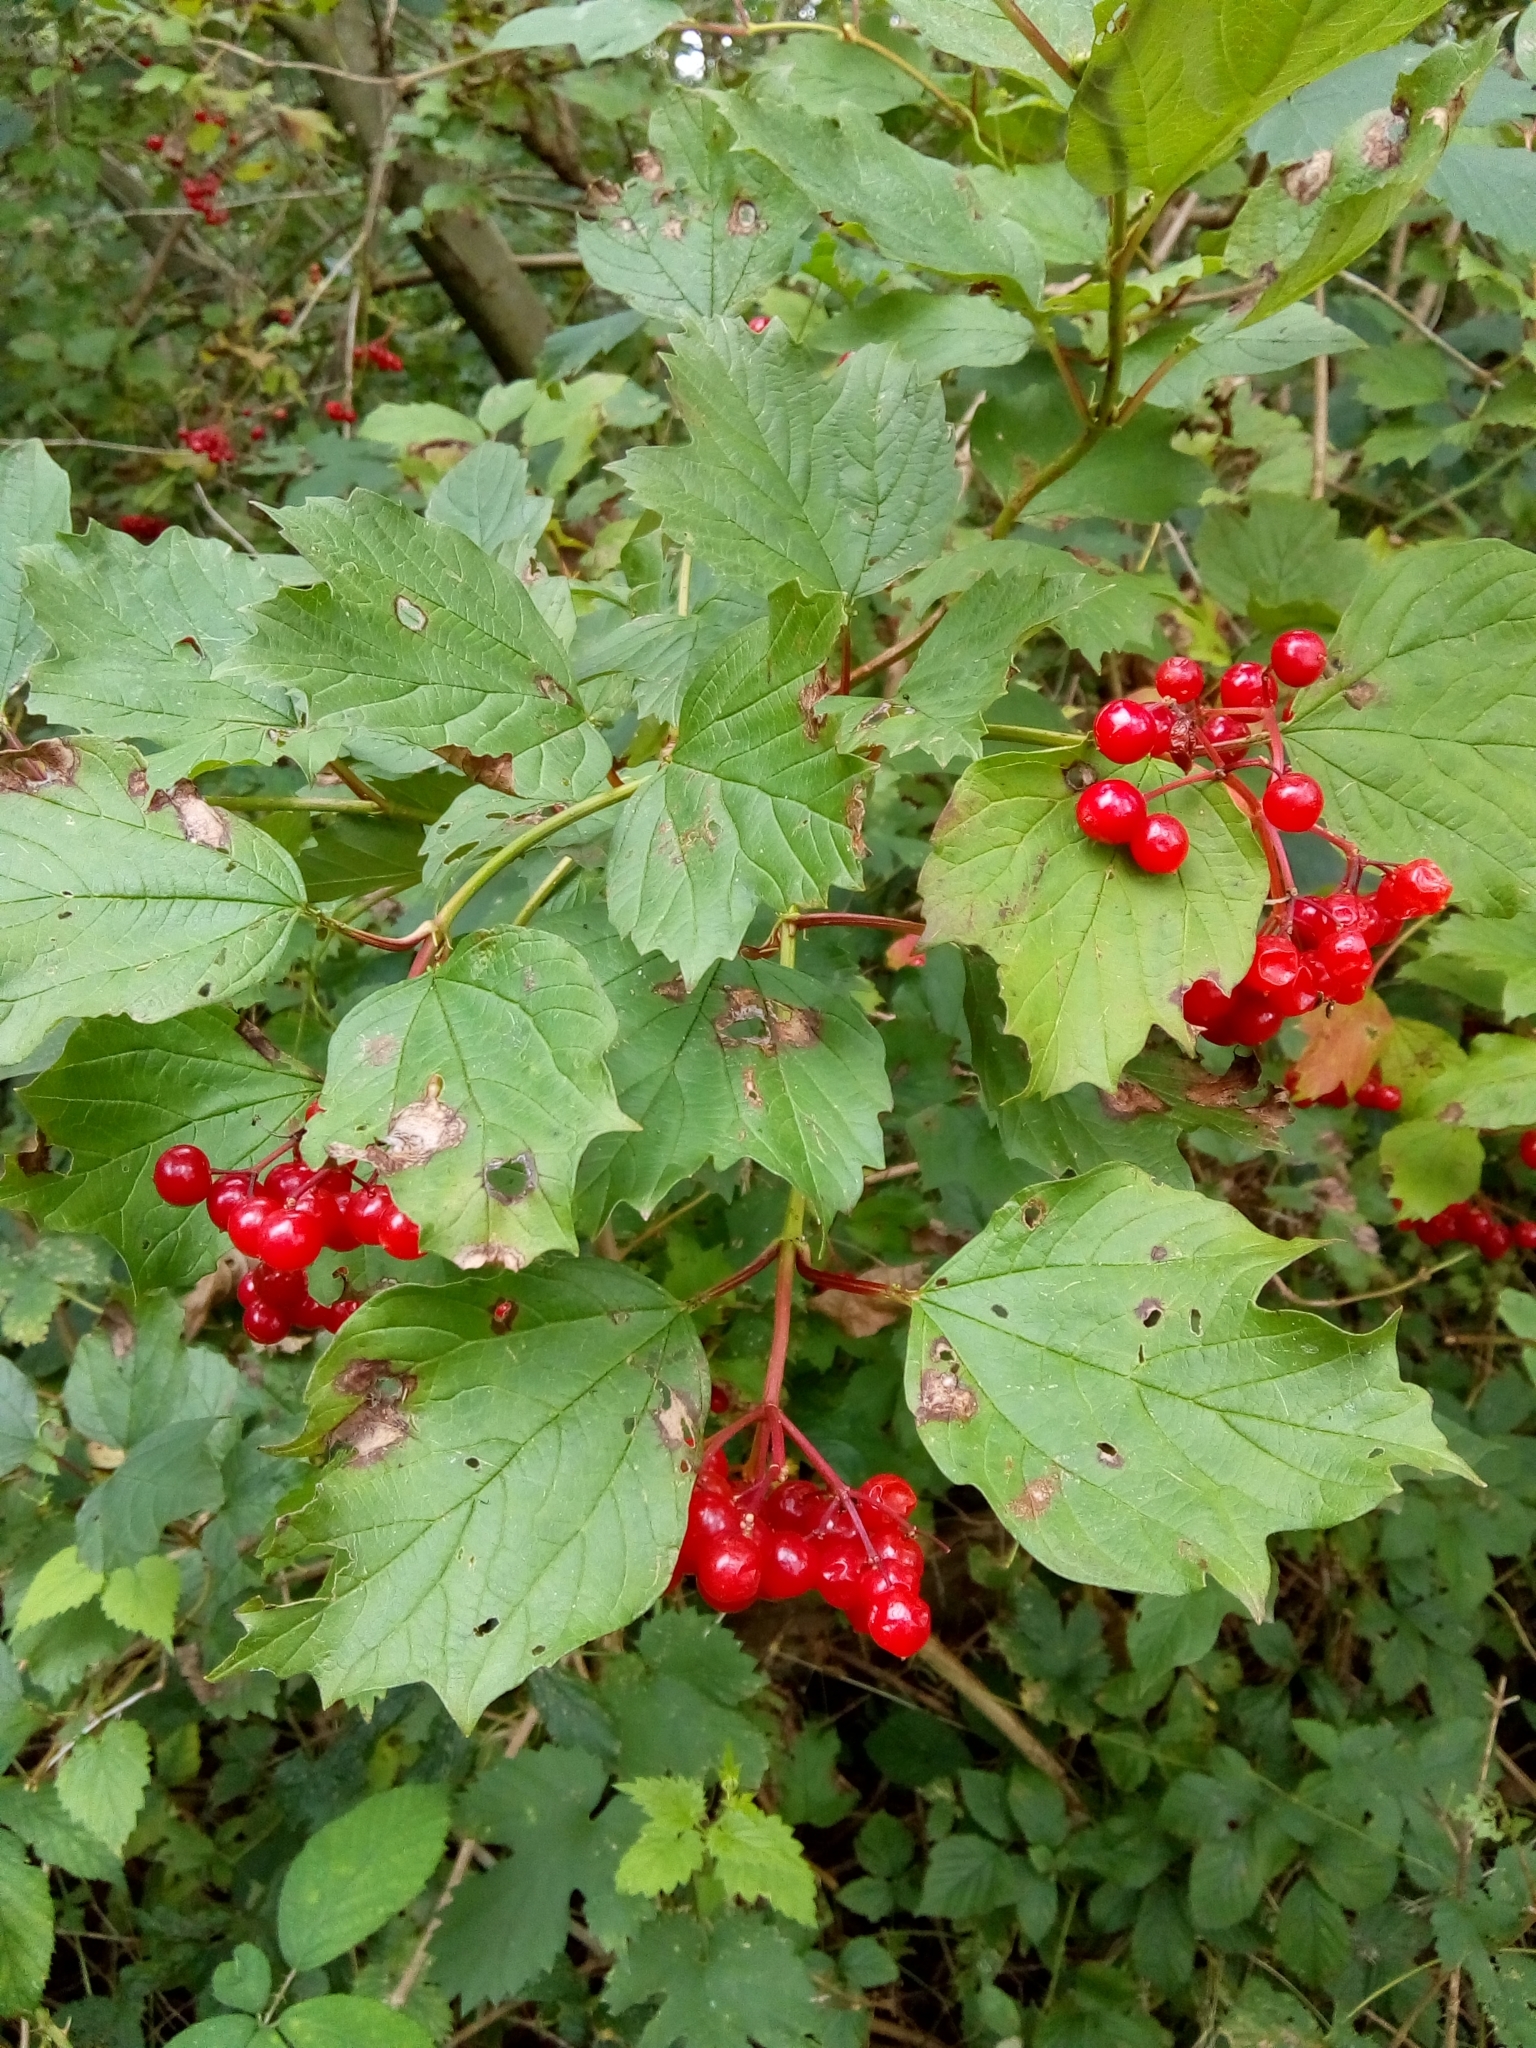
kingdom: Plantae
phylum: Tracheophyta
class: Magnoliopsida
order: Dipsacales
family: Viburnaceae
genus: Viburnum
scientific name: Viburnum opulus
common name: Guelder-rose
